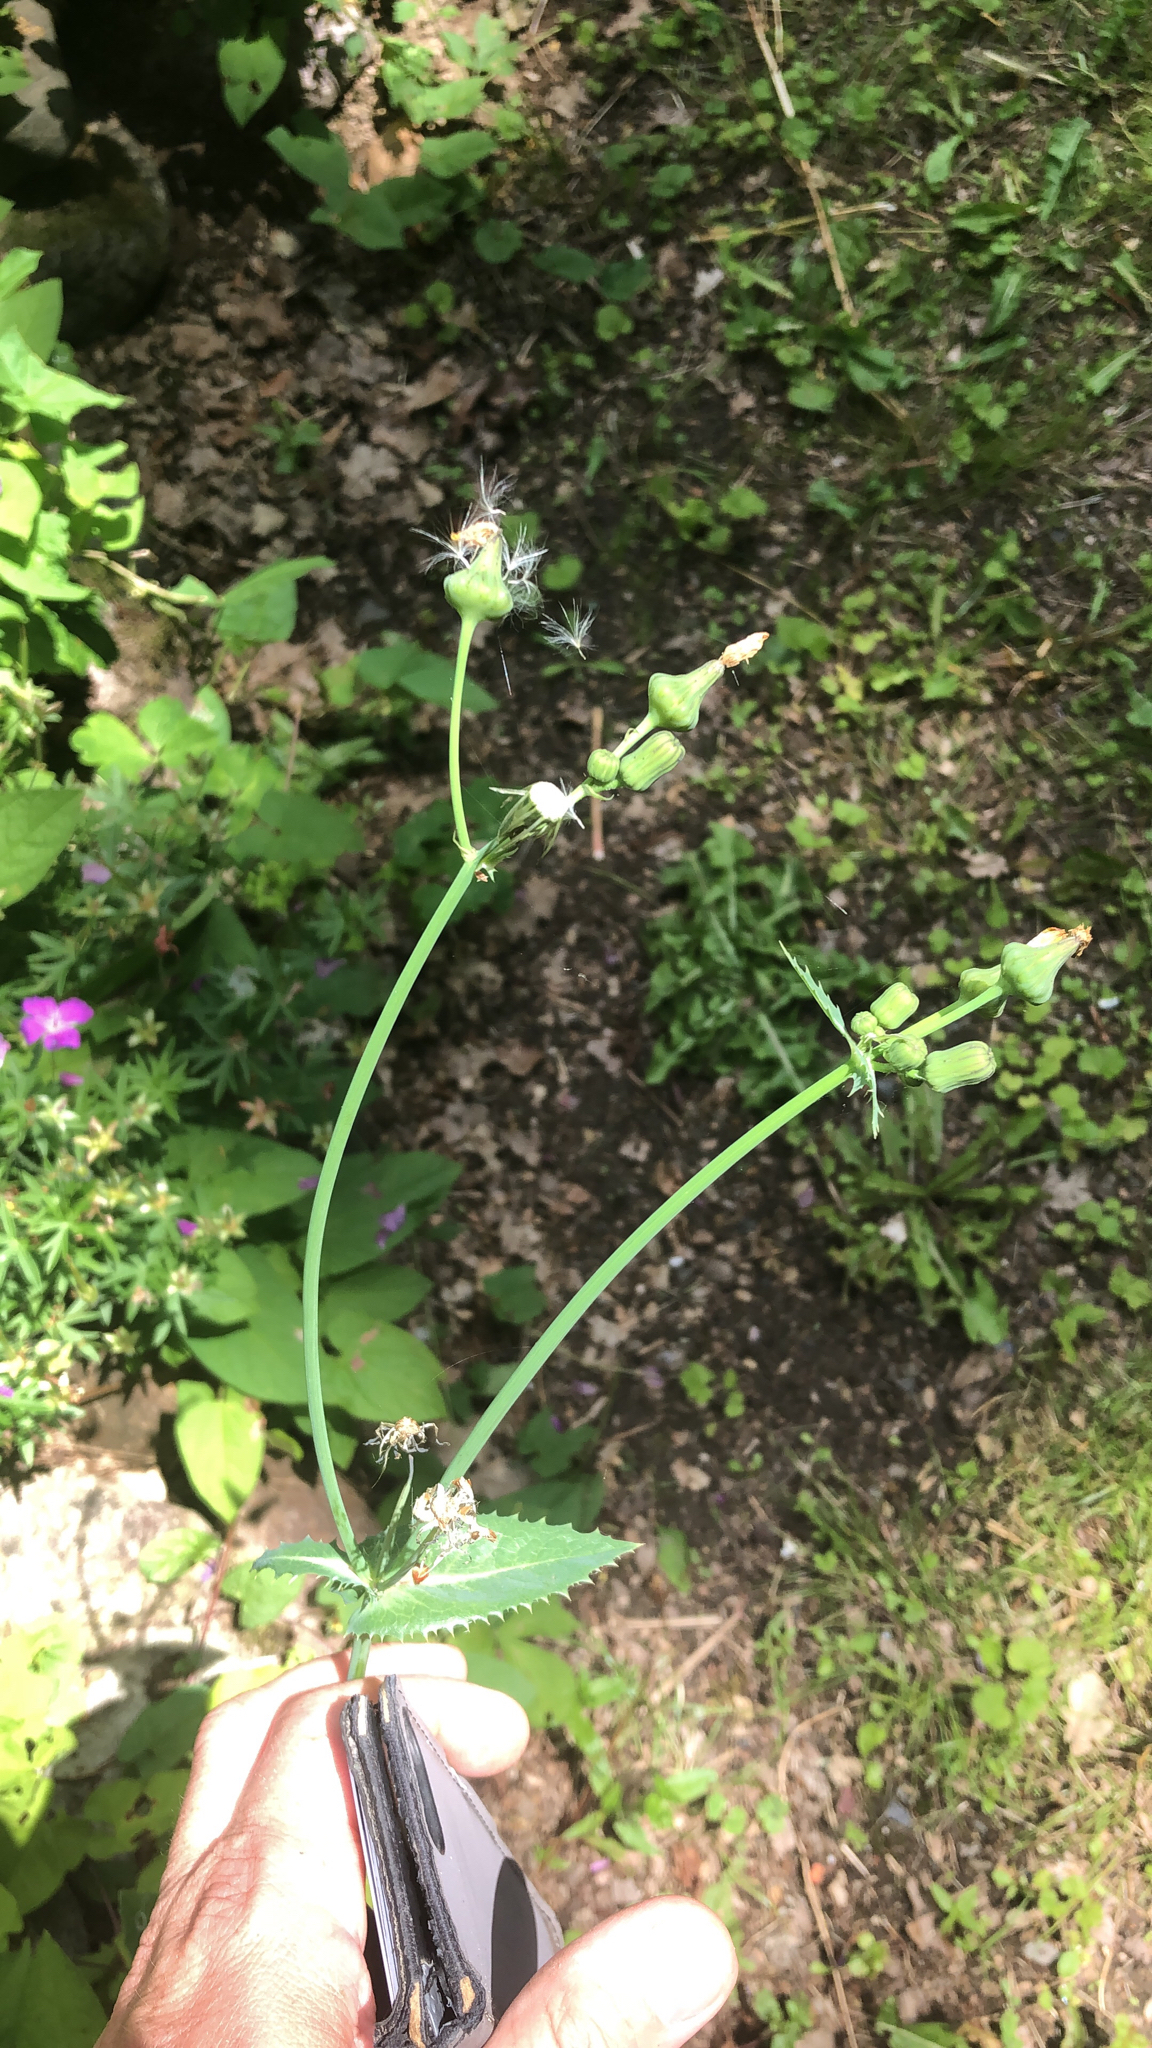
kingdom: Plantae
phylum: Tracheophyta
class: Magnoliopsida
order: Asterales
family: Asteraceae
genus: Sonchus
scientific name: Sonchus oleraceus
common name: Common sowthistle
